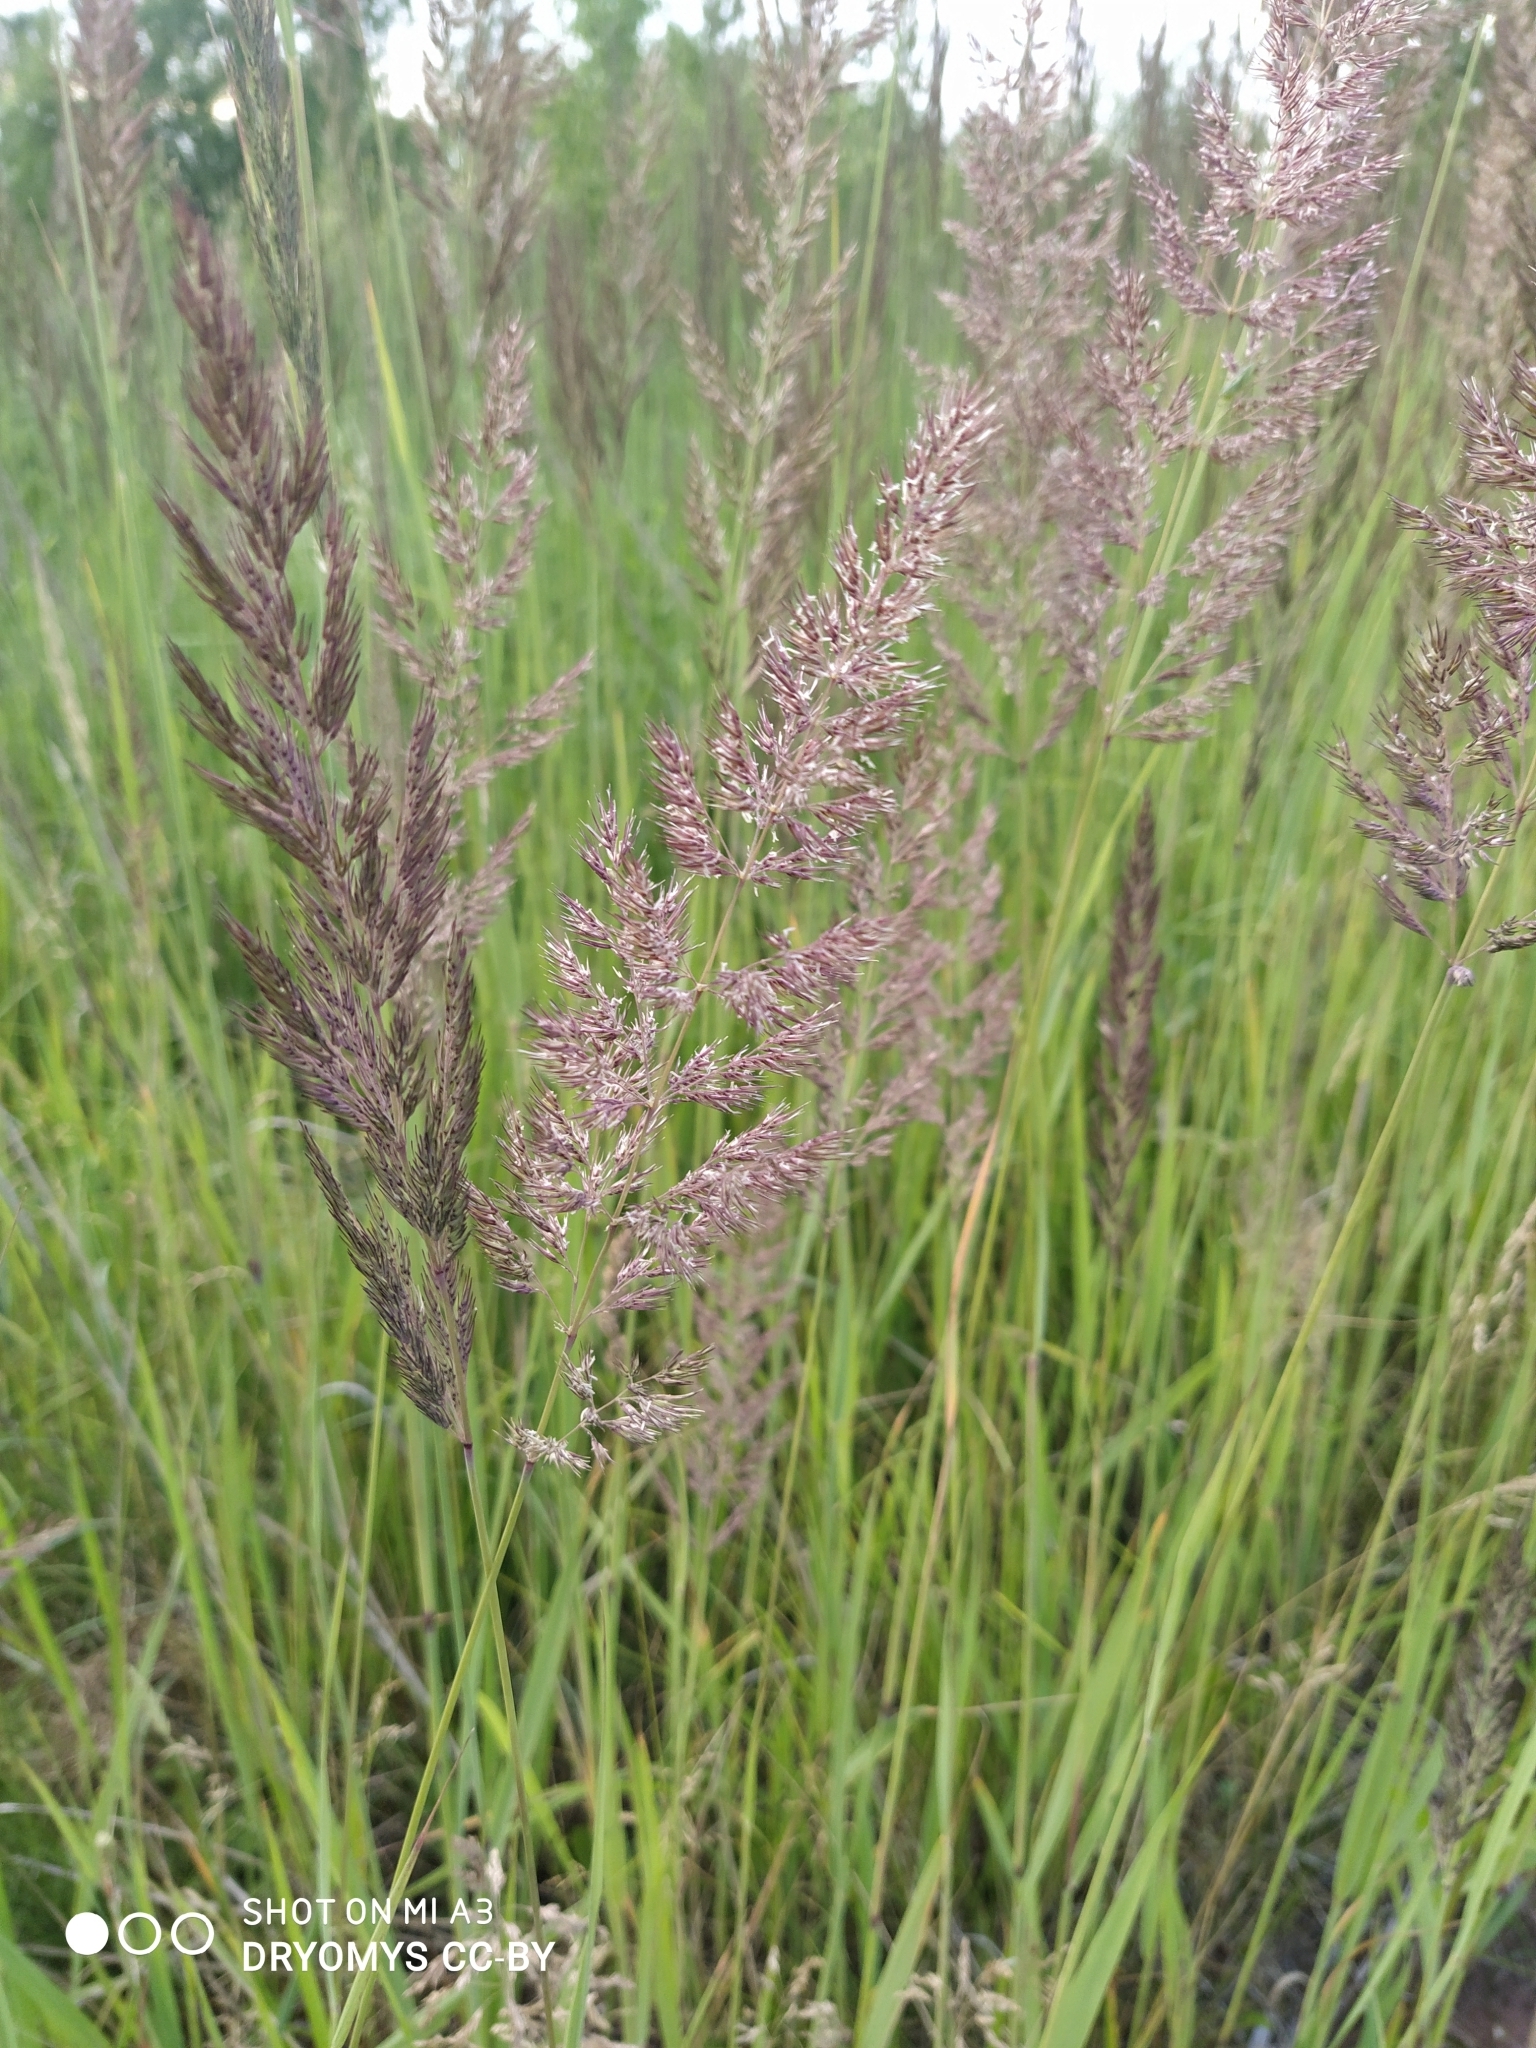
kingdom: Plantae
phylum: Tracheophyta
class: Liliopsida
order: Poales
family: Poaceae
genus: Calamagrostis
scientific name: Calamagrostis epigejos
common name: Wood small-reed
